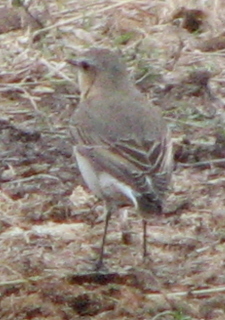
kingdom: Animalia
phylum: Chordata
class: Aves
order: Passeriformes
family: Muscicapidae
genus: Oenanthe
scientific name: Oenanthe oenanthe
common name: Northern wheatear
